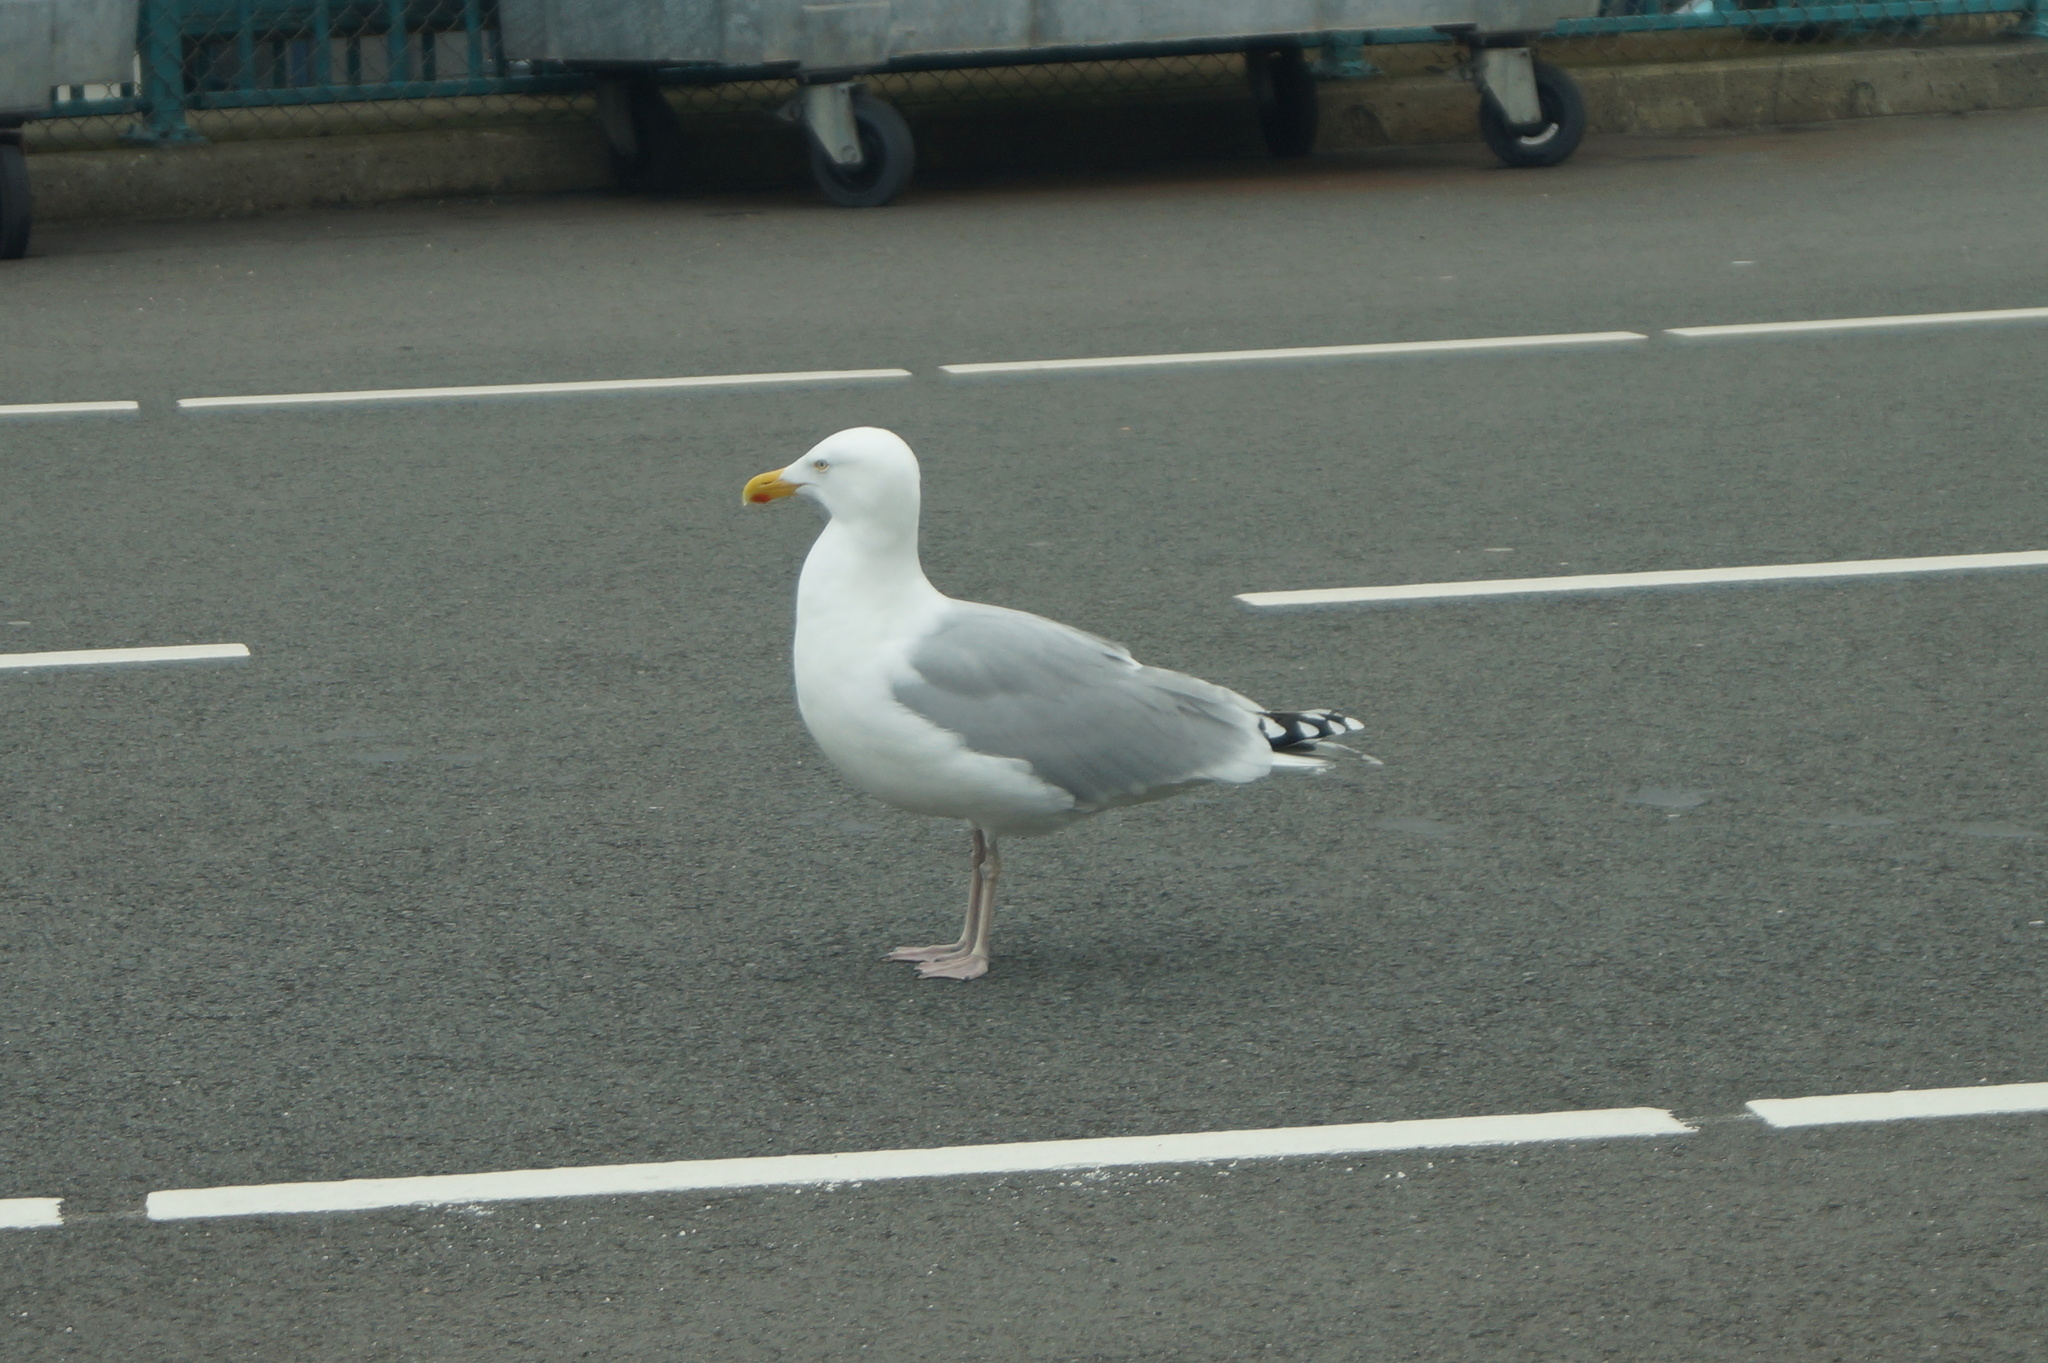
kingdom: Animalia
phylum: Chordata
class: Aves
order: Charadriiformes
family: Laridae
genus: Larus
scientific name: Larus argentatus
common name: Herring gull
